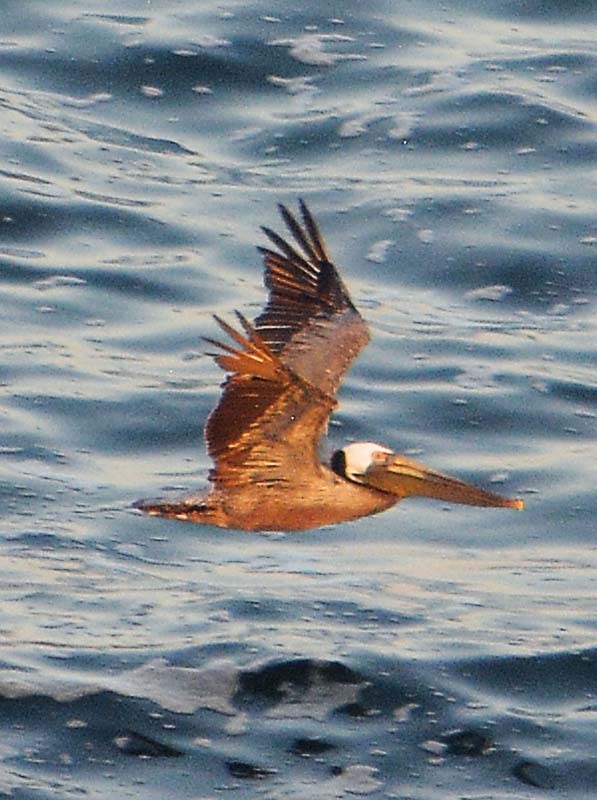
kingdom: Animalia
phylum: Chordata
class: Aves
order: Pelecaniformes
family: Pelecanidae
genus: Pelecanus
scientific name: Pelecanus occidentalis
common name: Brown pelican
